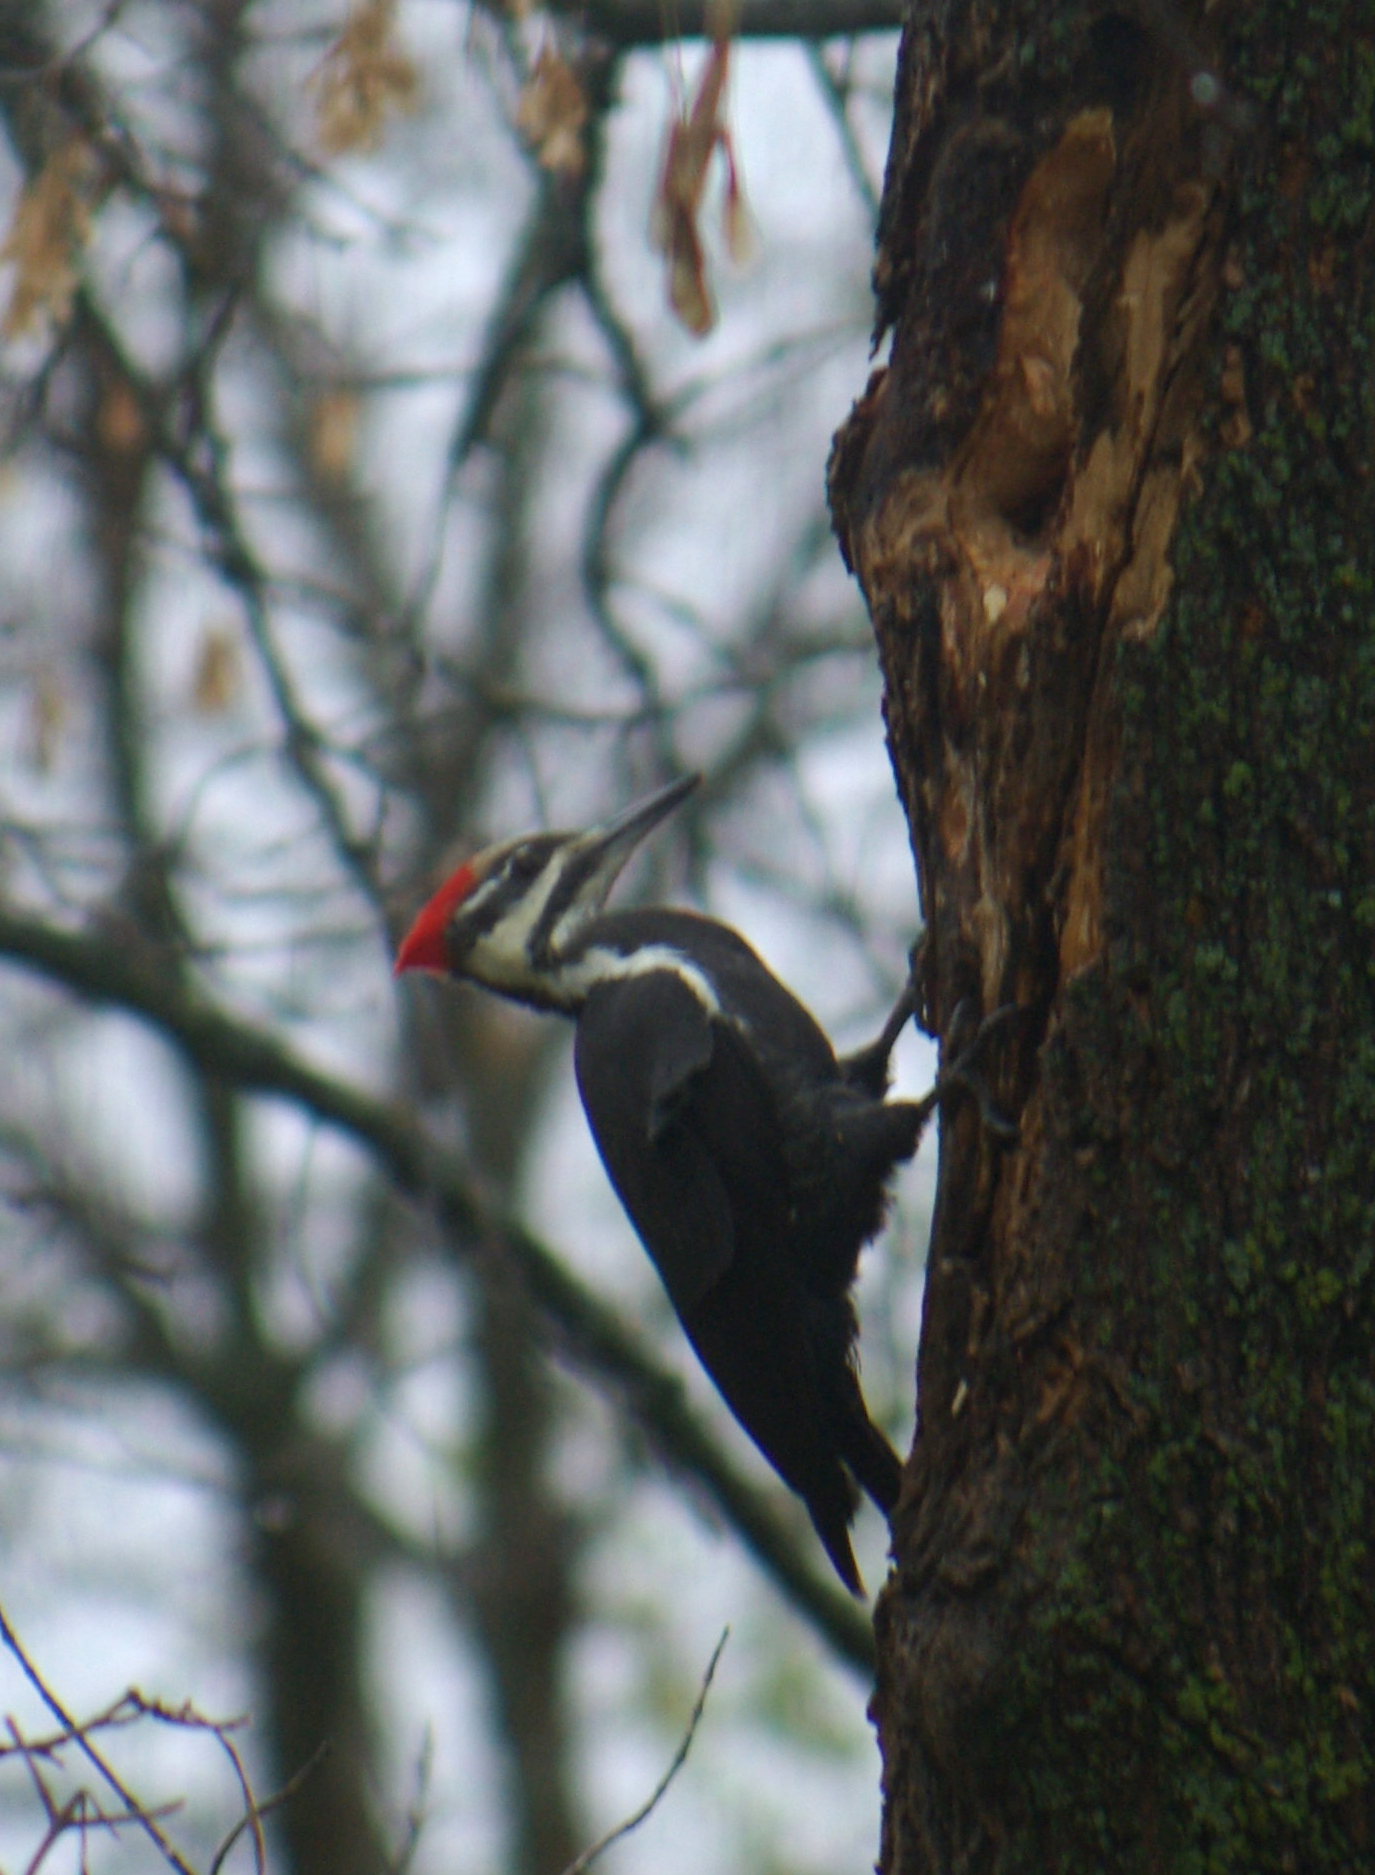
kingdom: Animalia
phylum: Chordata
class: Aves
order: Piciformes
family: Picidae
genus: Dryocopus
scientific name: Dryocopus pileatus
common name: Pileated woodpecker
